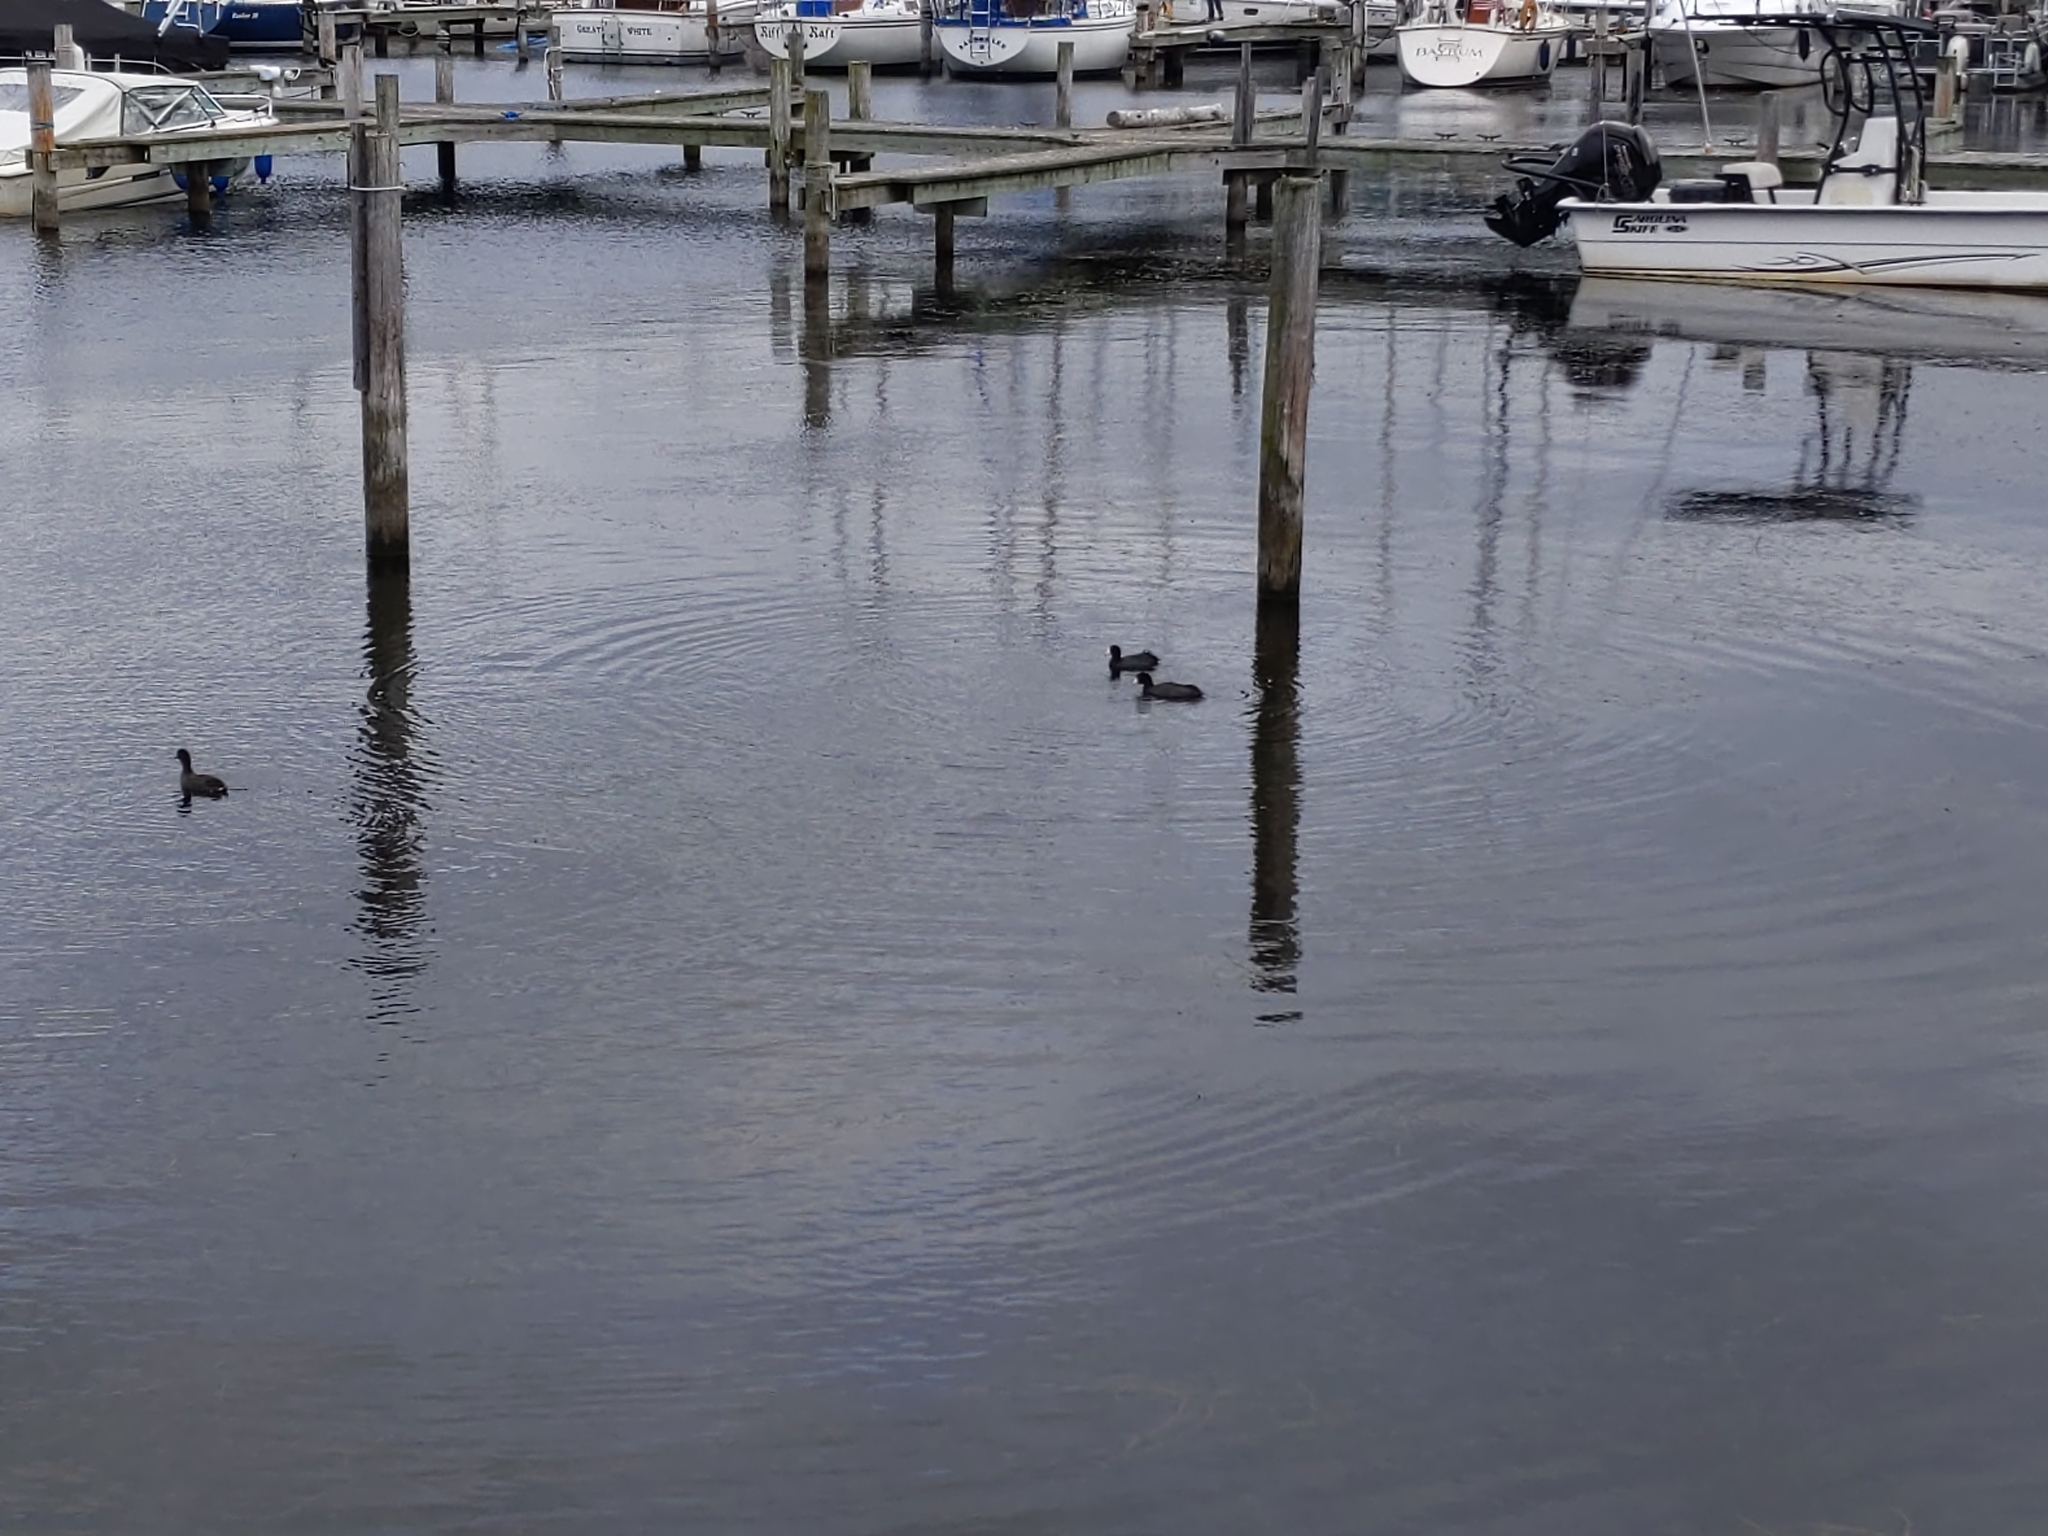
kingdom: Animalia
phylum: Chordata
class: Aves
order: Gruiformes
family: Rallidae
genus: Fulica
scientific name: Fulica americana
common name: American coot
